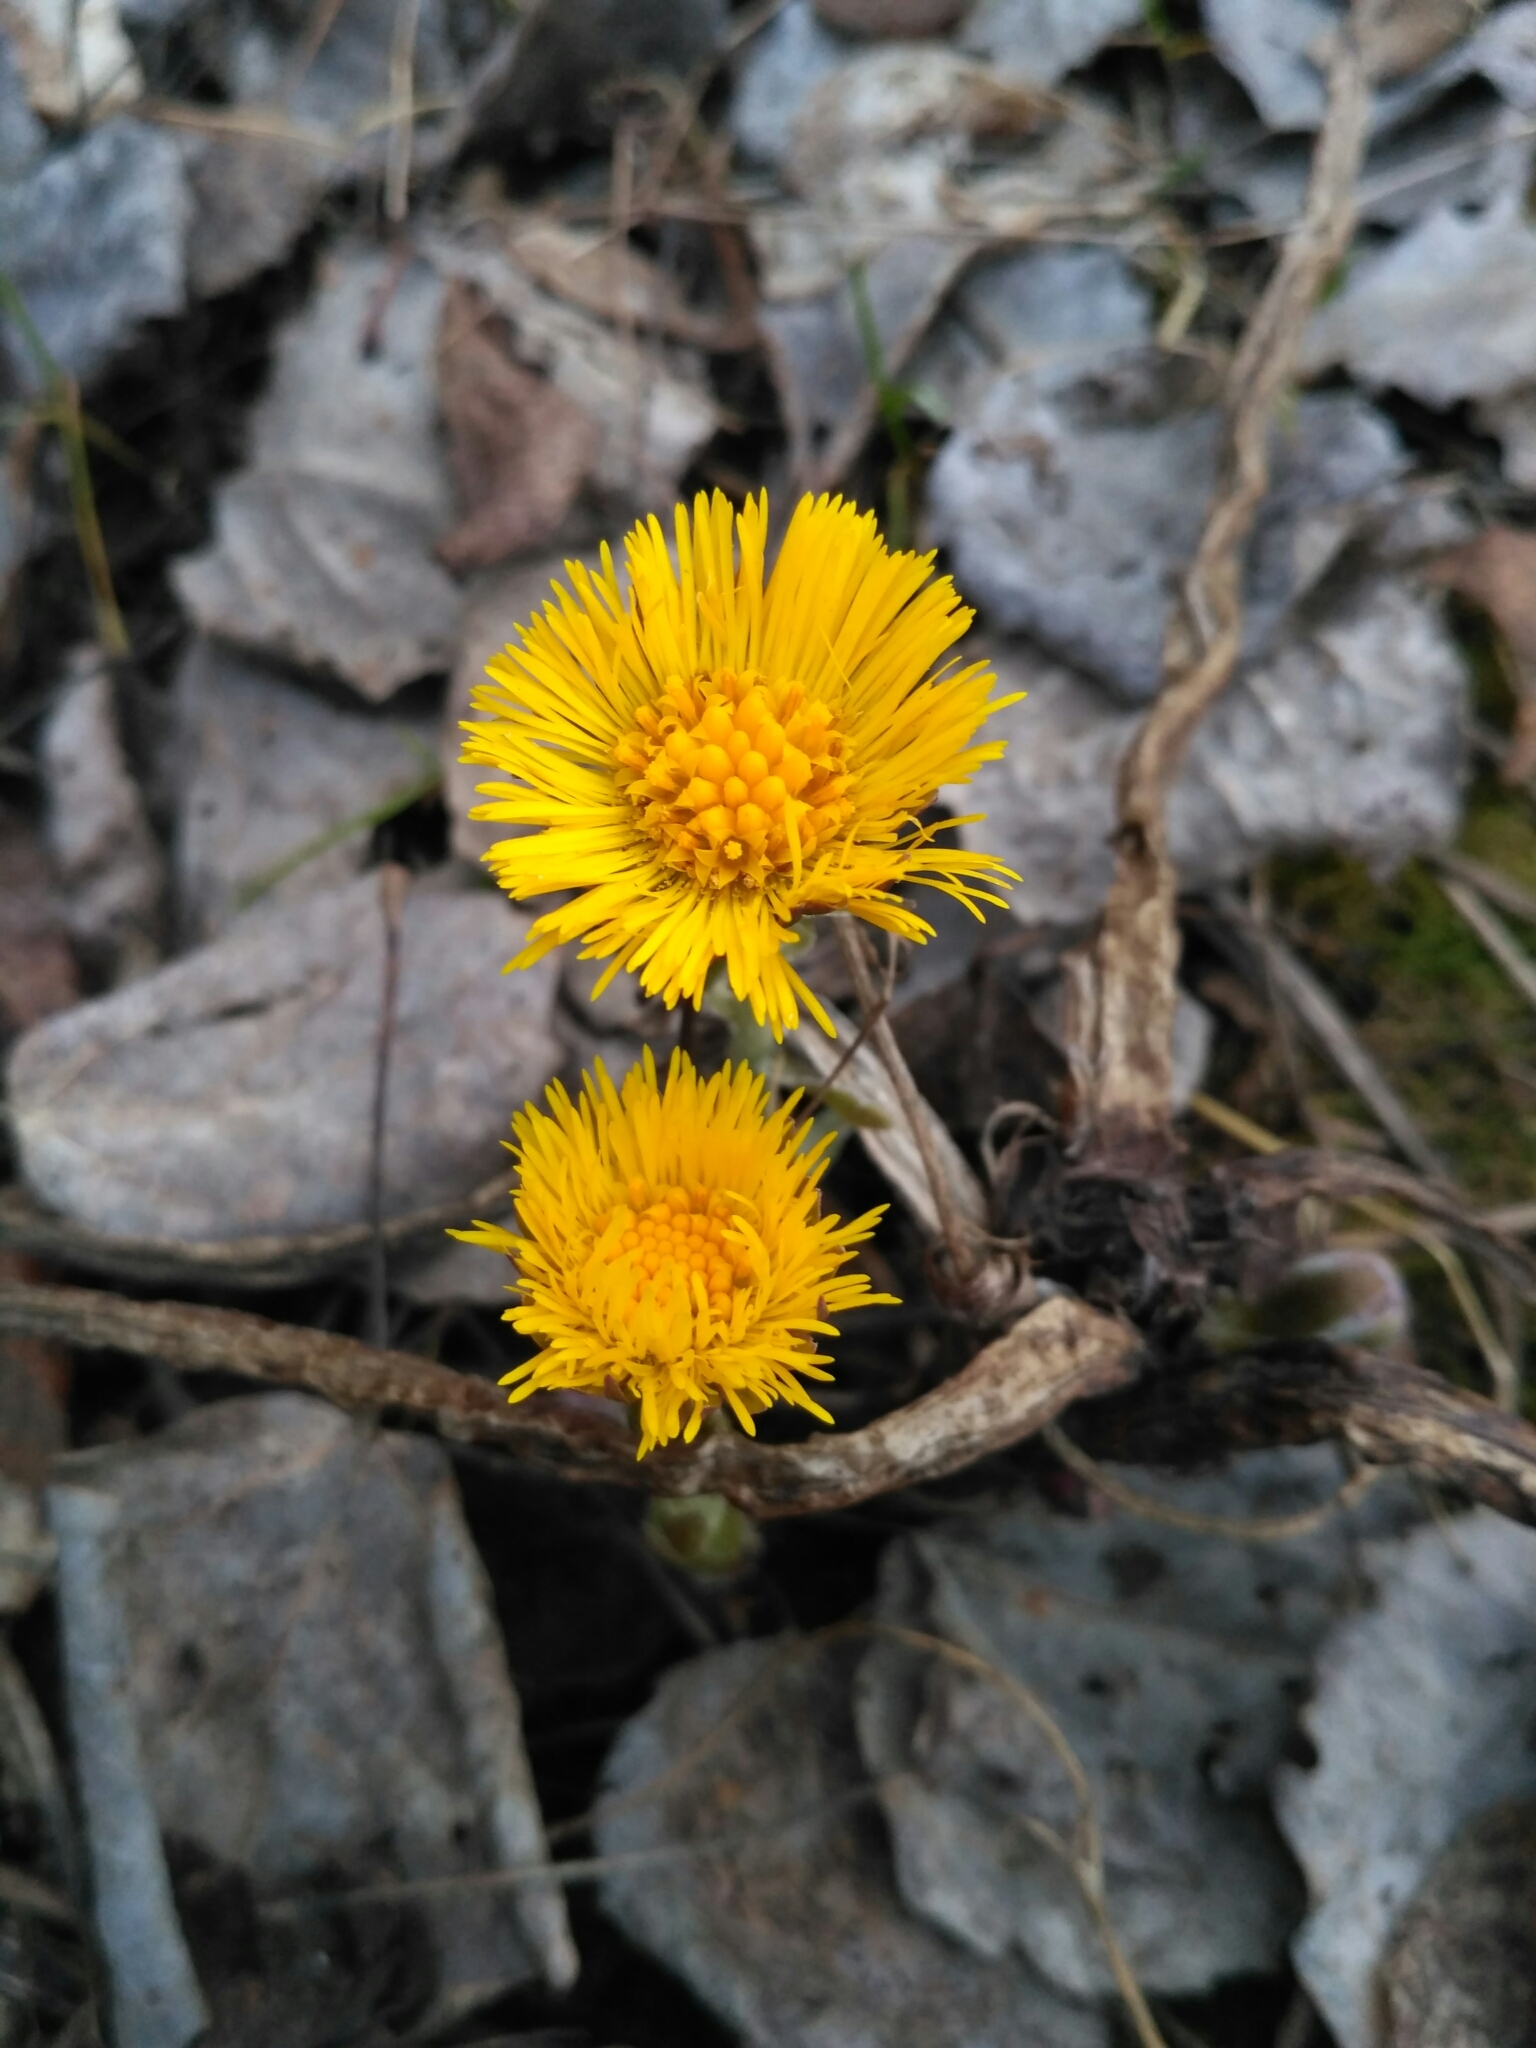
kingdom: Plantae
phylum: Tracheophyta
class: Magnoliopsida
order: Asterales
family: Asteraceae
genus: Tussilago
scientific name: Tussilago farfara
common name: Coltsfoot
